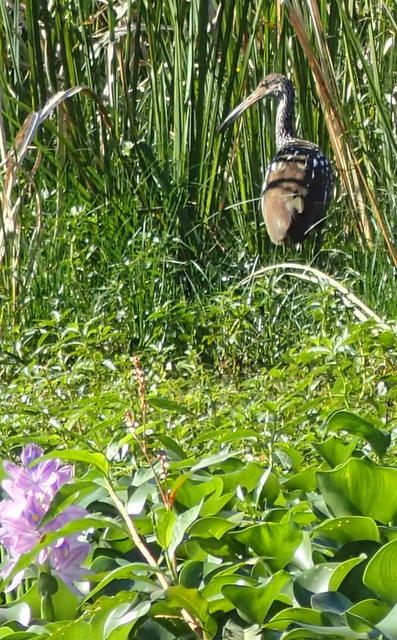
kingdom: Animalia
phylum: Chordata
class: Aves
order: Gruiformes
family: Aramidae
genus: Aramus
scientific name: Aramus guarauna
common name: Limpkin
